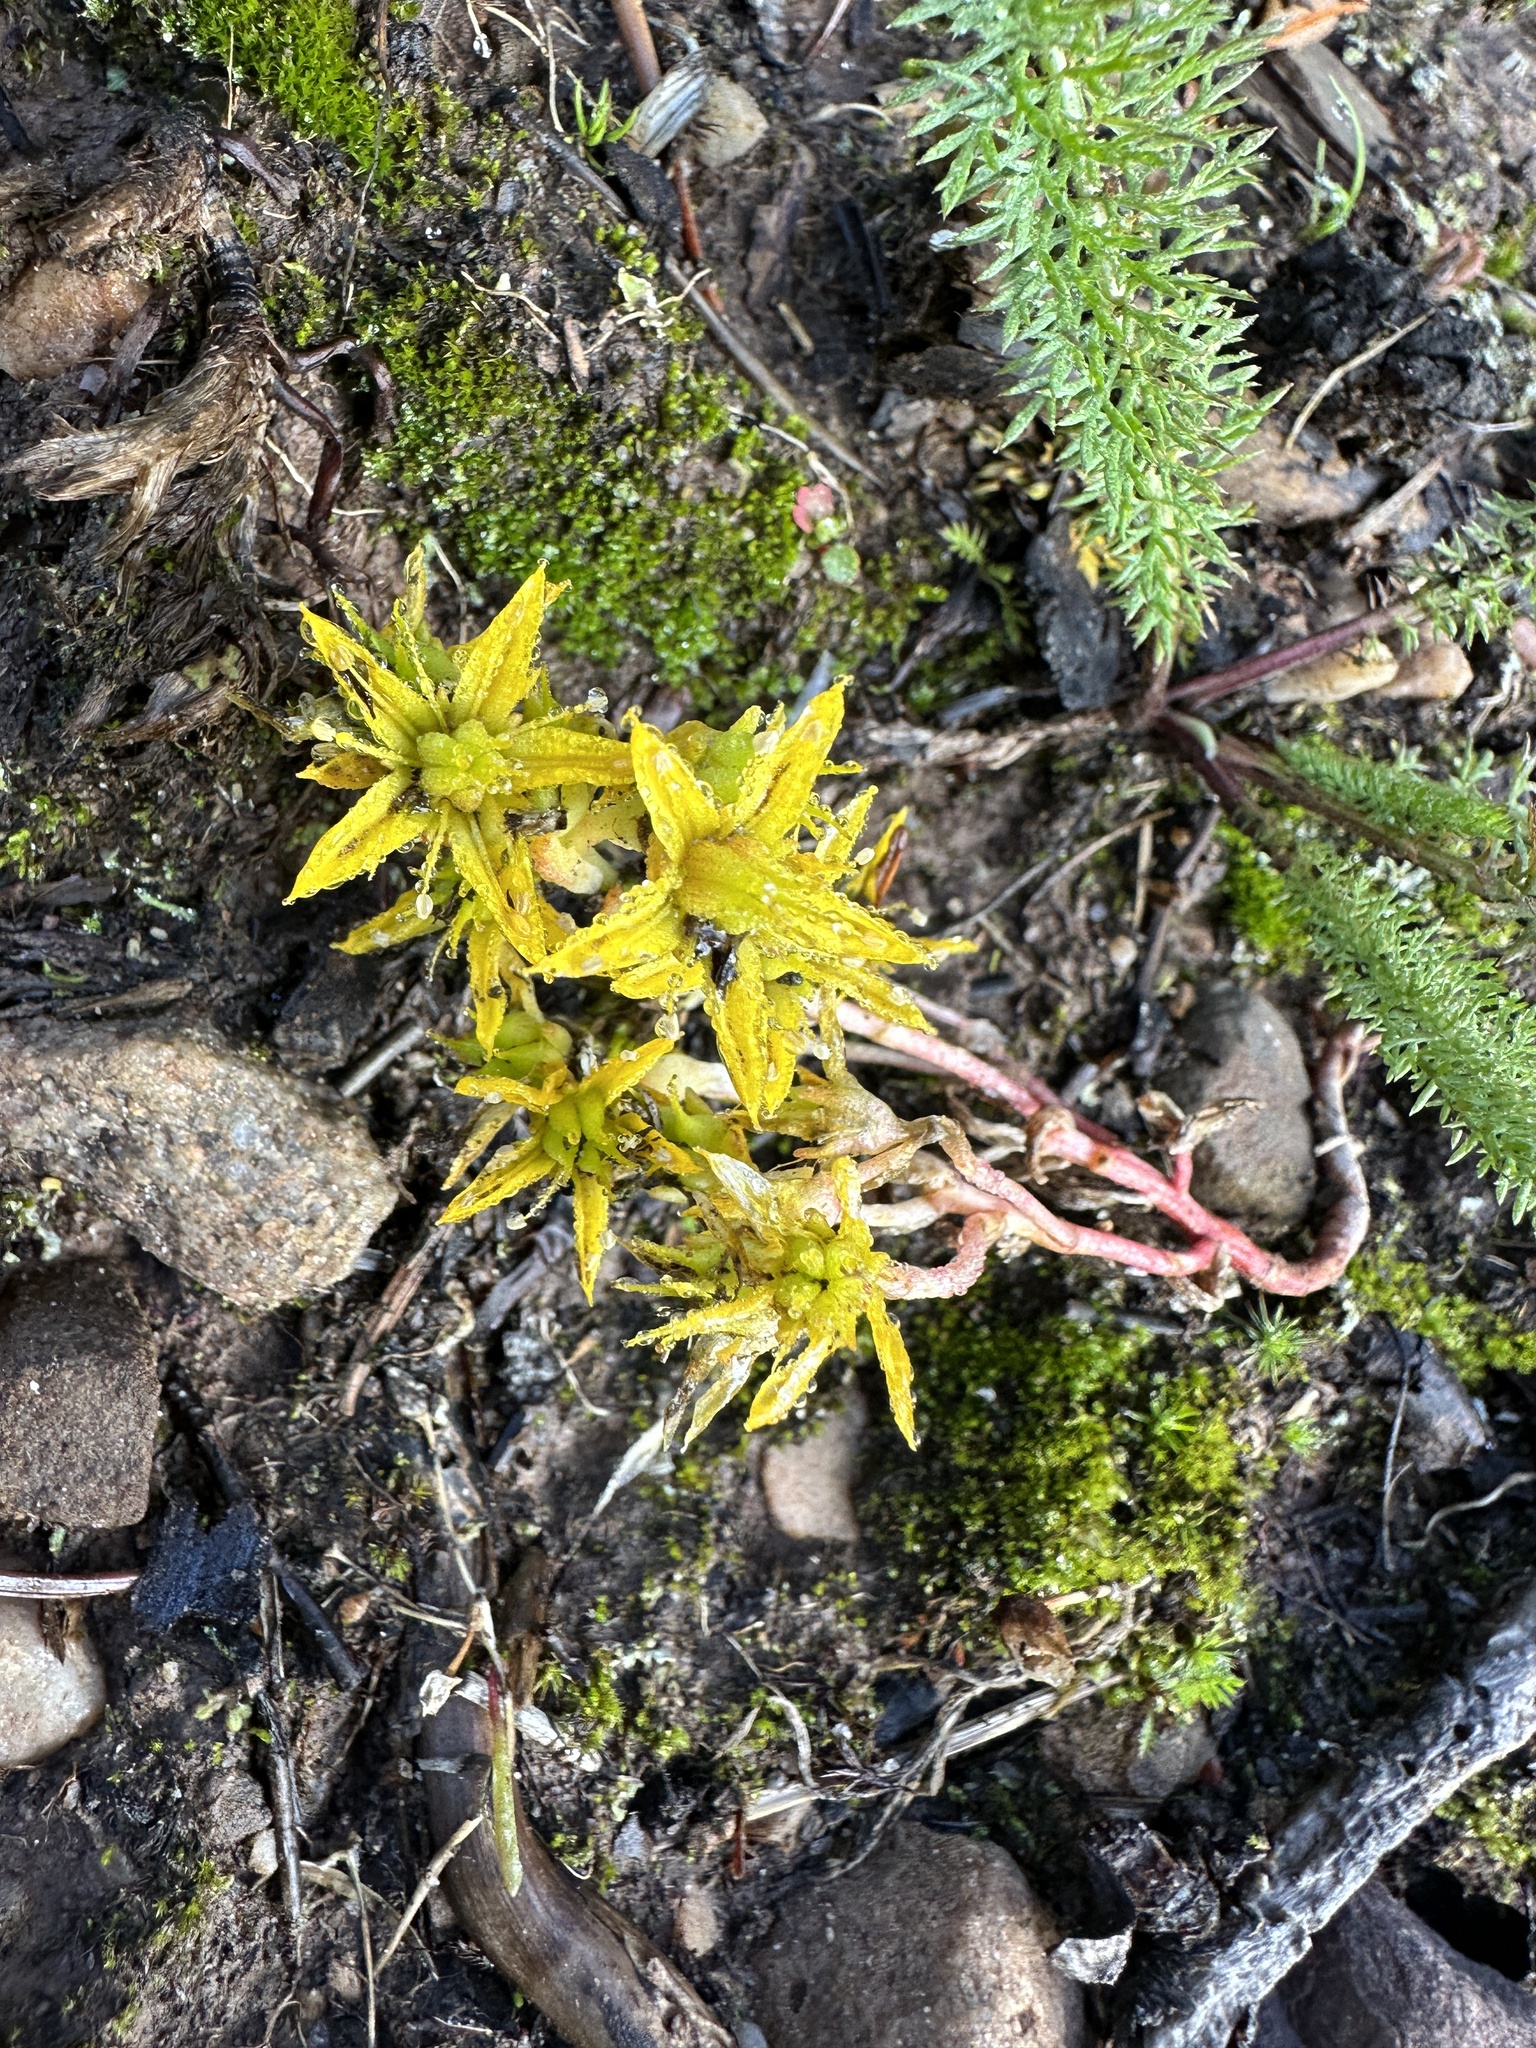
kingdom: Plantae
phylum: Tracheophyta
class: Magnoliopsida
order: Saxifragales
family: Crassulaceae
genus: Sedum
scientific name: Sedum lanceolatum
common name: Common stonecrop
